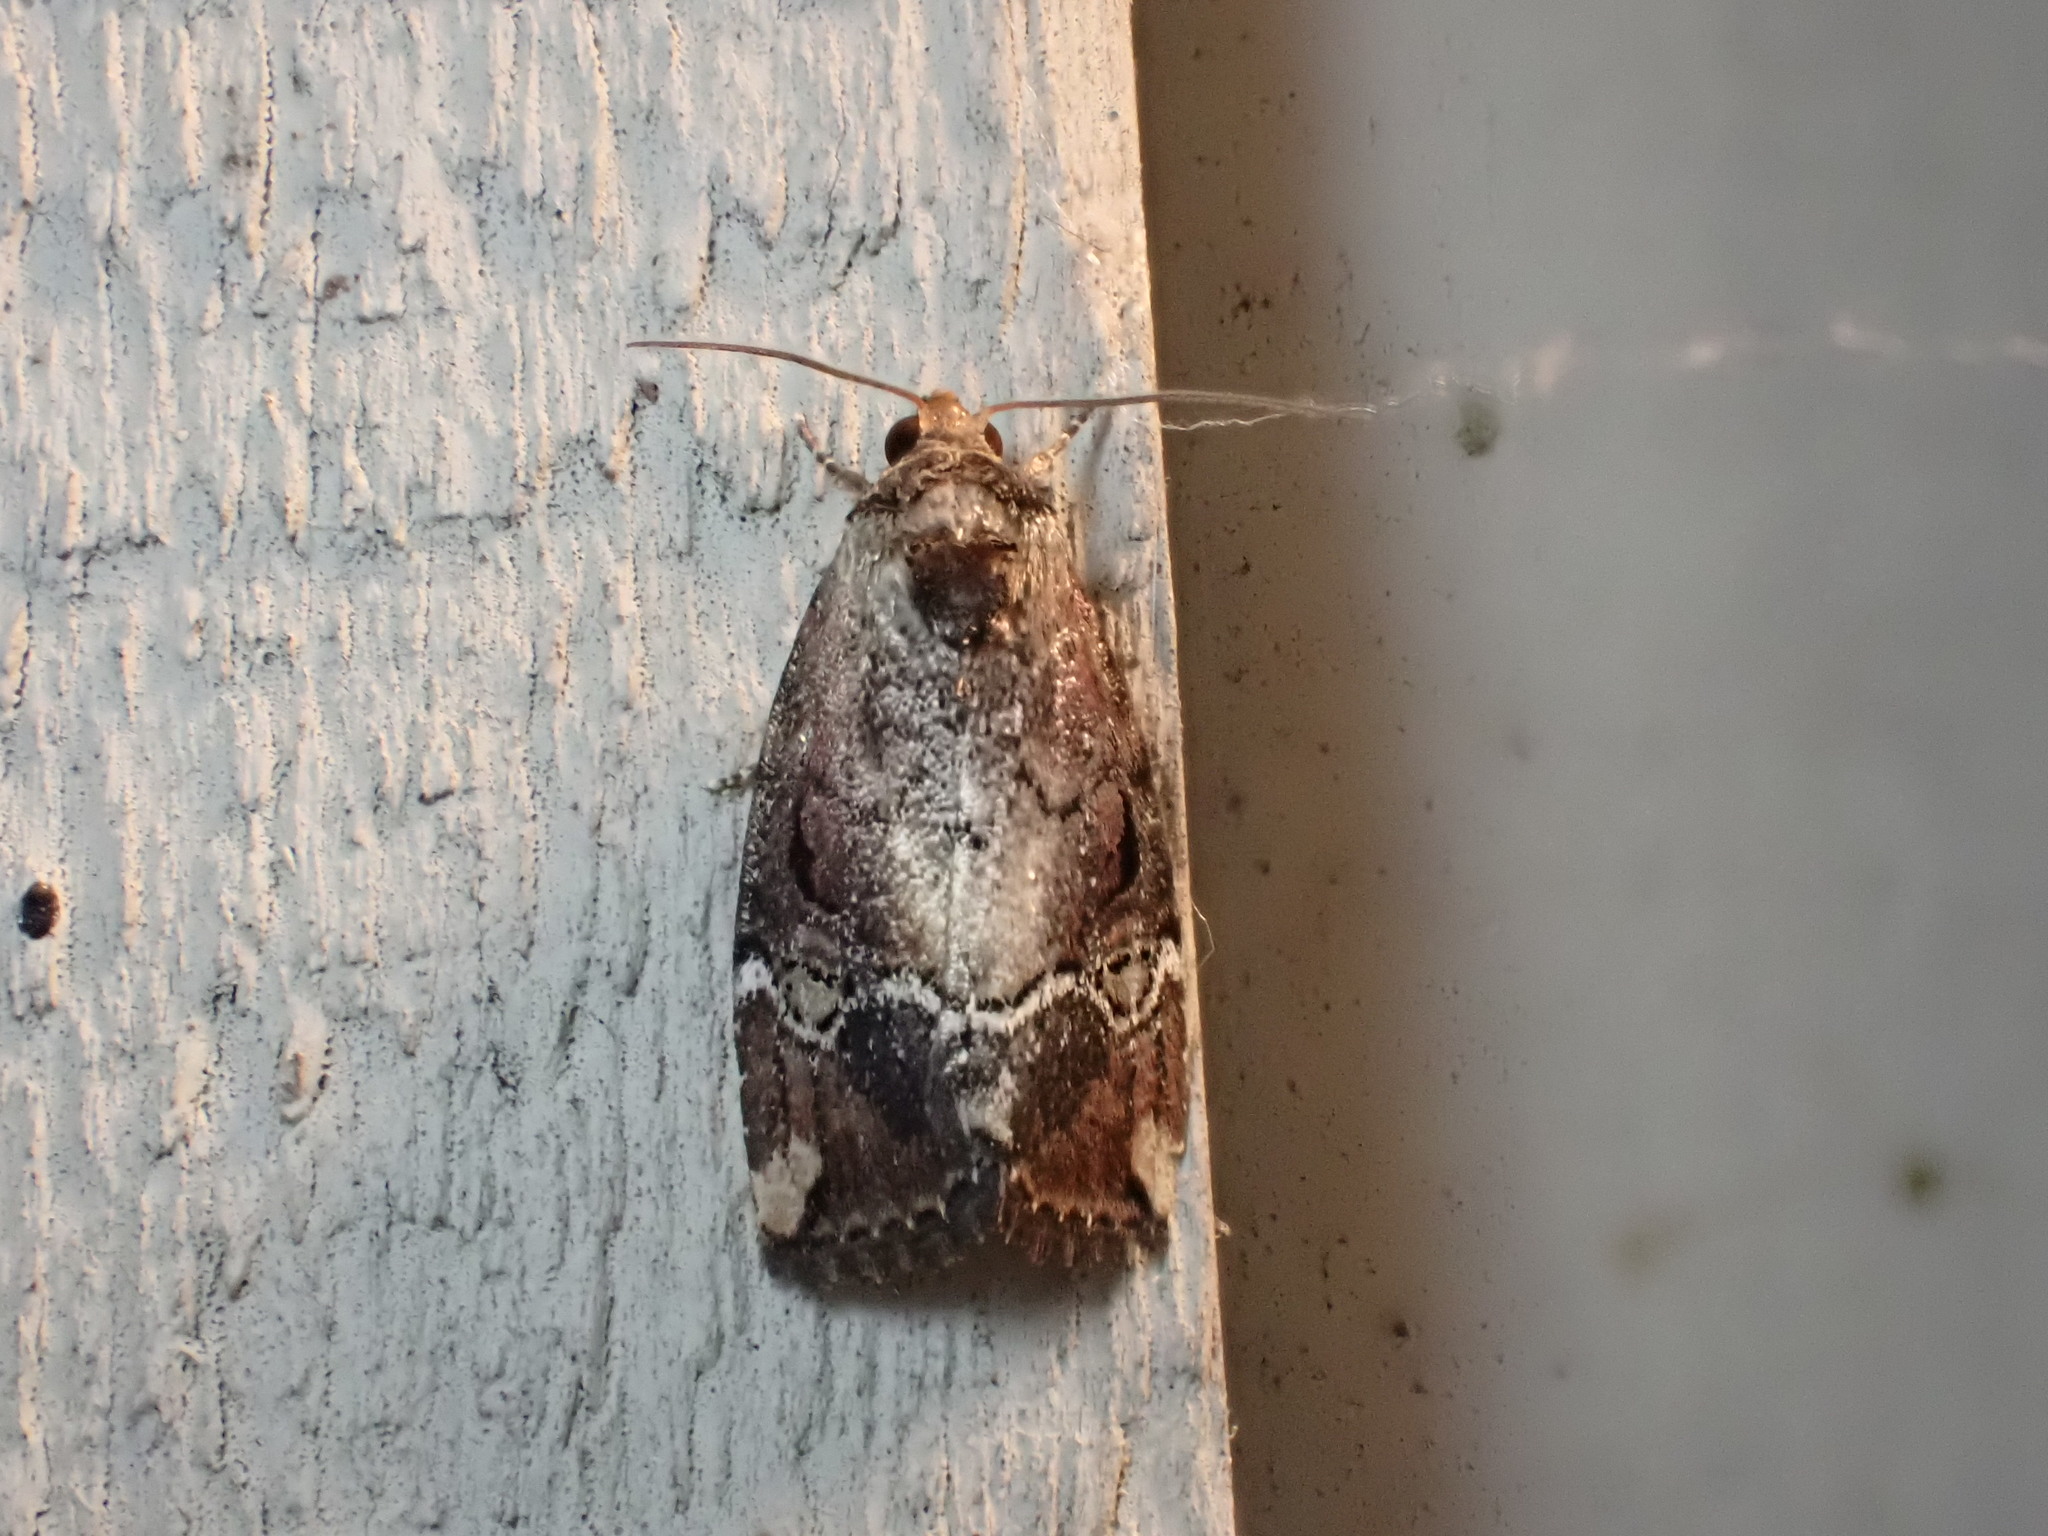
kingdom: Animalia
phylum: Arthropoda
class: Insecta
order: Lepidoptera
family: Noctuidae
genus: Elaphria
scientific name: Elaphria versicolor
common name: Fir harlequin
